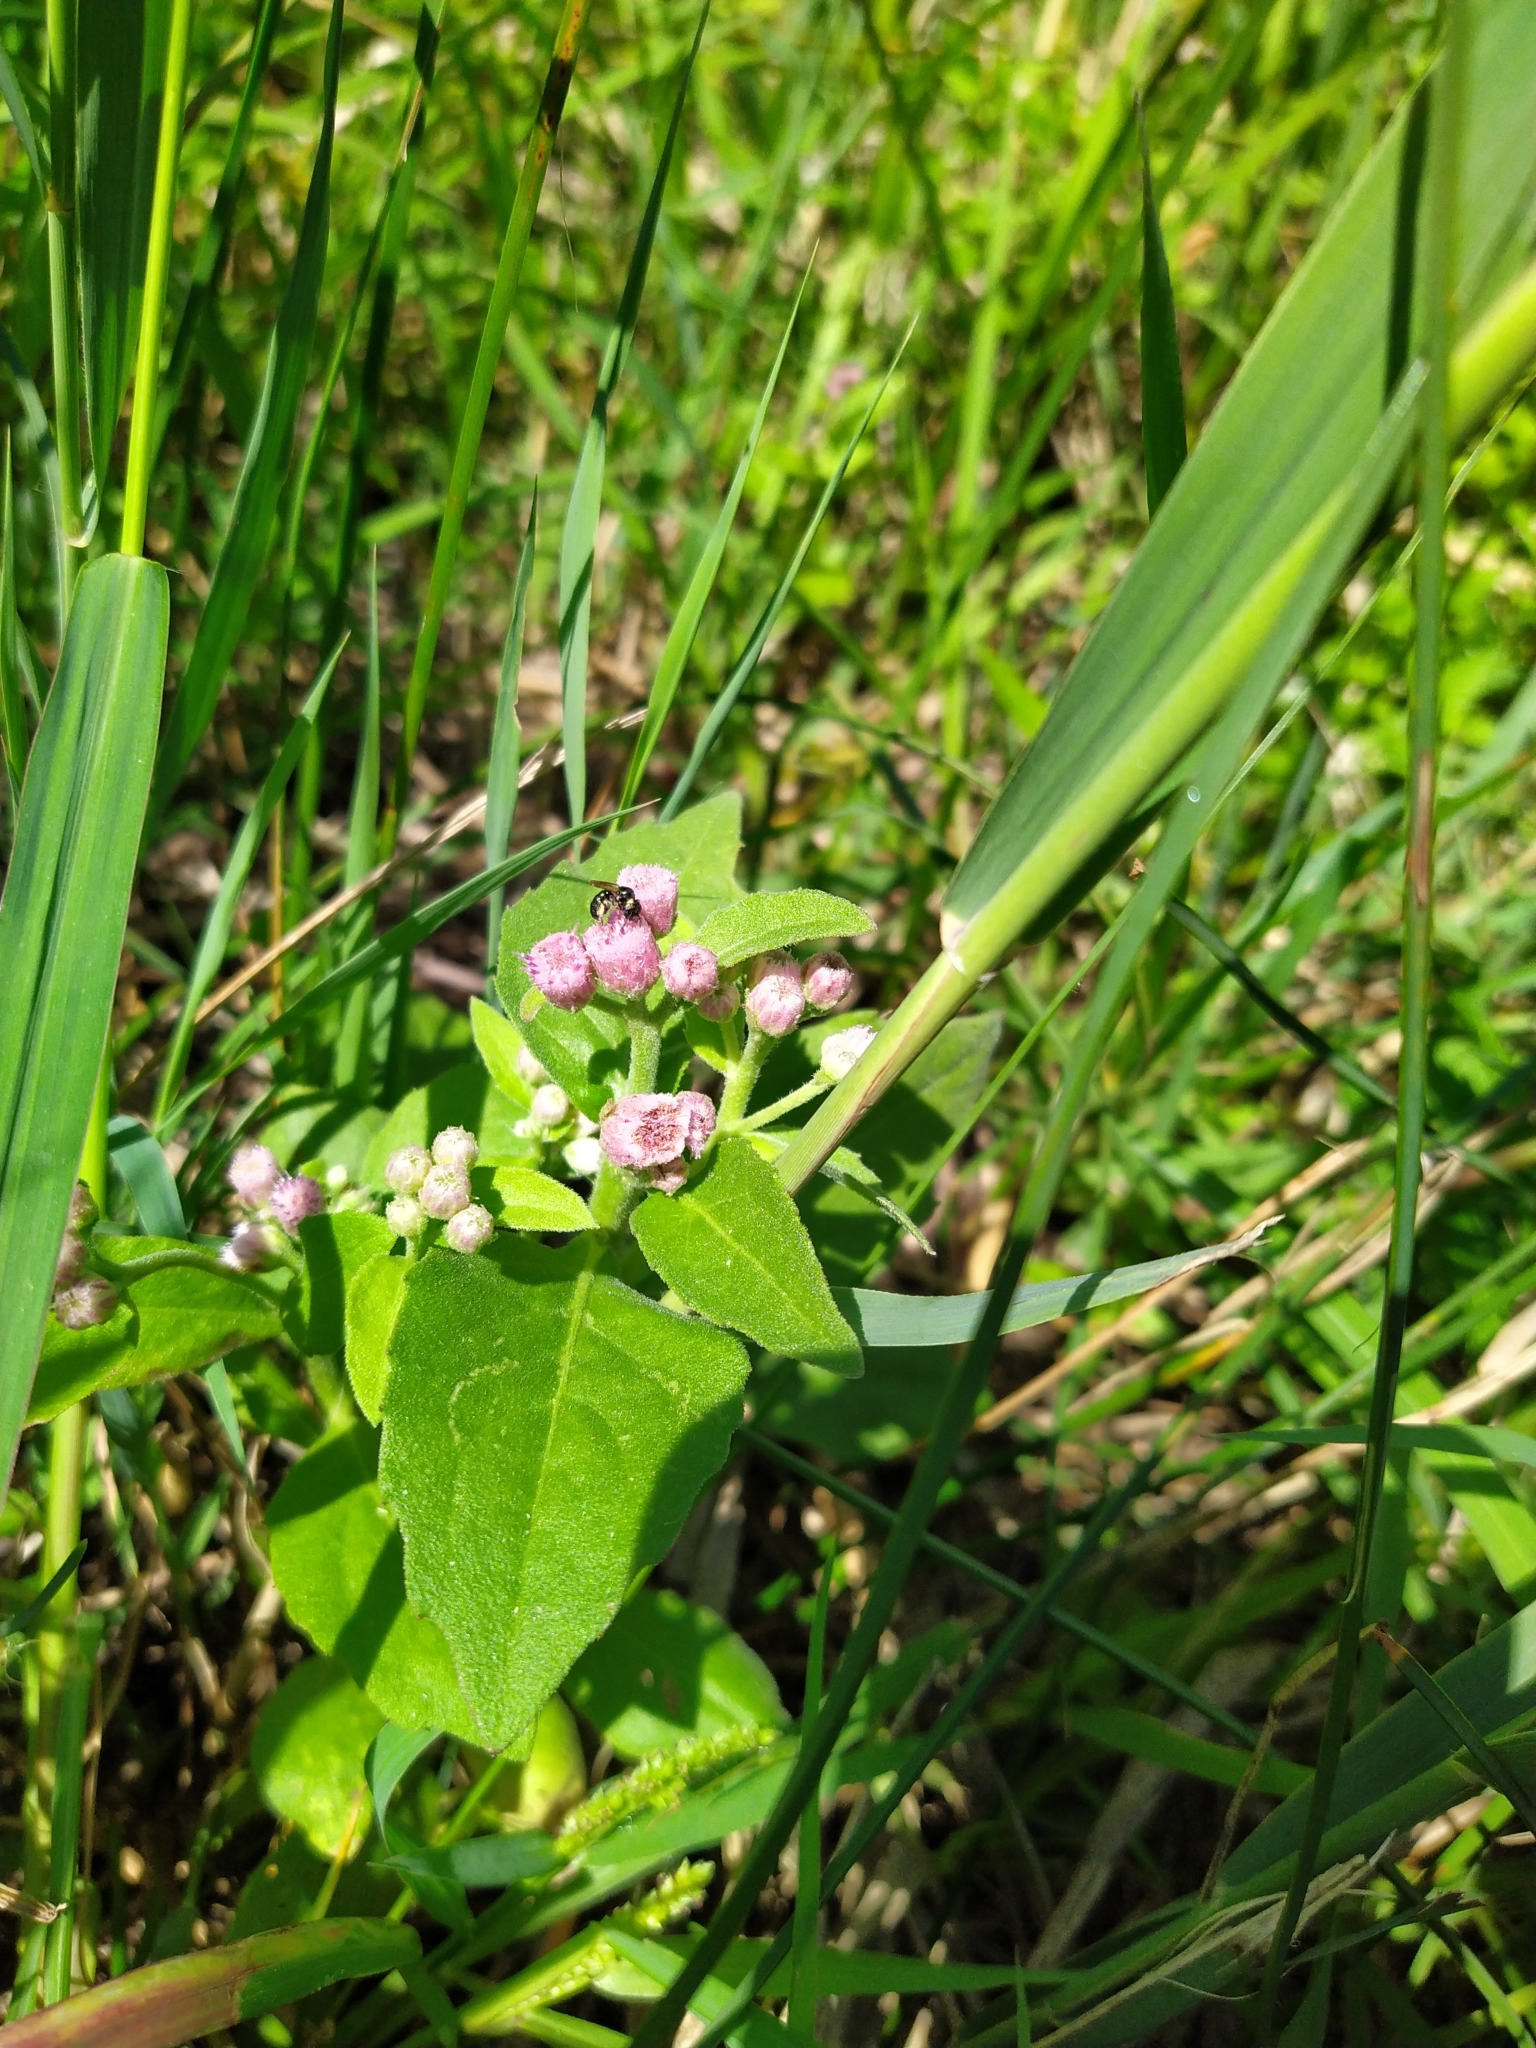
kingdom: Plantae
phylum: Tracheophyta
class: Magnoliopsida
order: Asterales
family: Asteraceae
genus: Pluchea
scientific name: Pluchea odorata
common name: Saltmarsh fleabane
